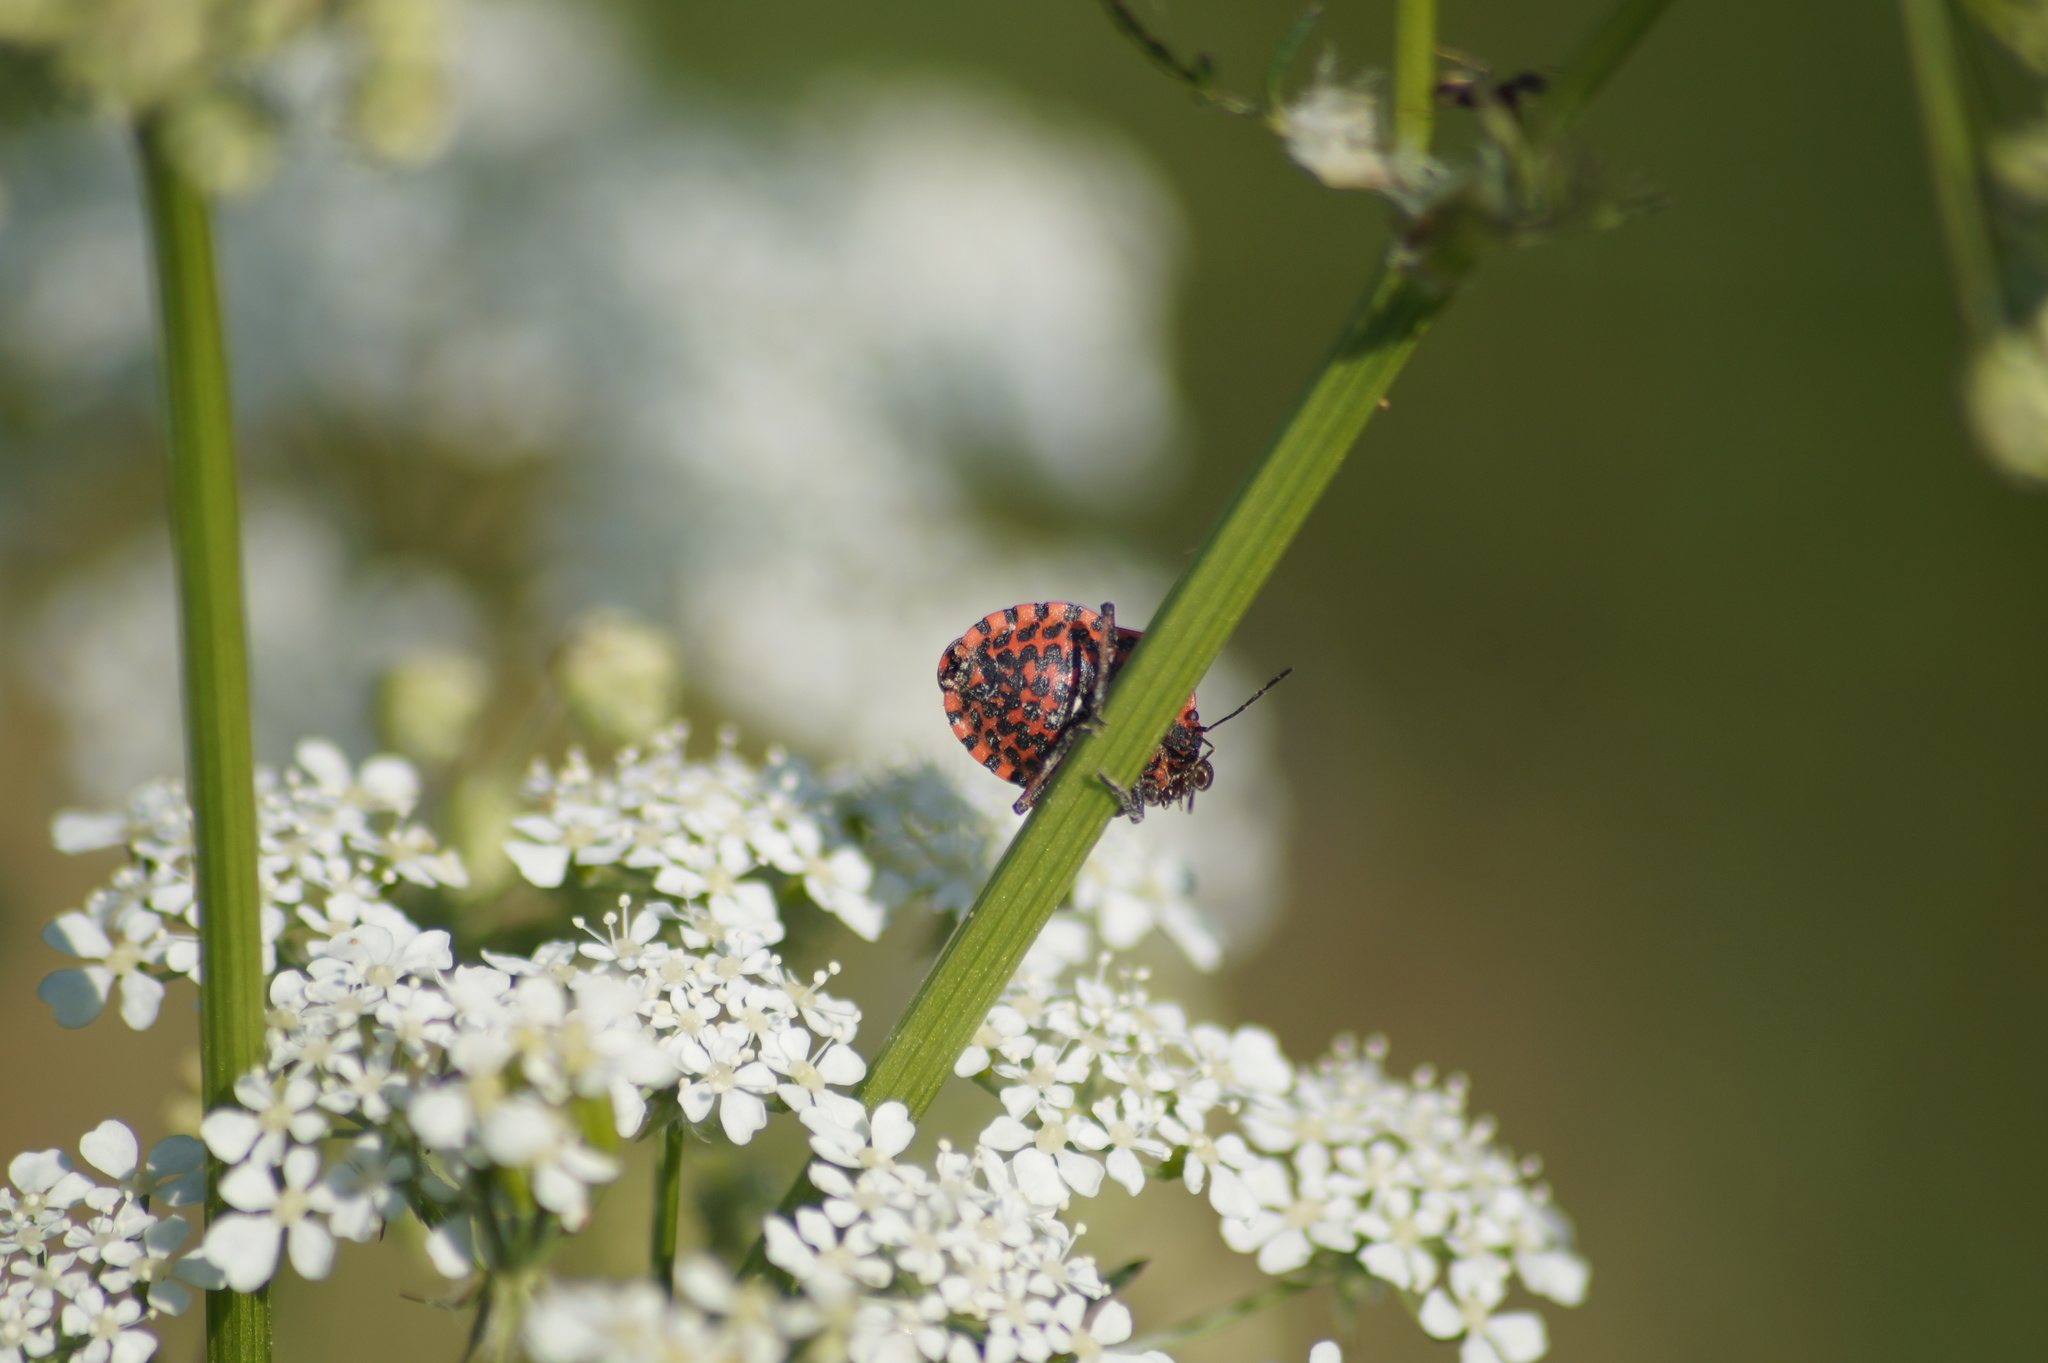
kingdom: Animalia
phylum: Arthropoda
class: Insecta
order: Hemiptera
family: Pentatomidae
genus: Graphosoma
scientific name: Graphosoma italicum
